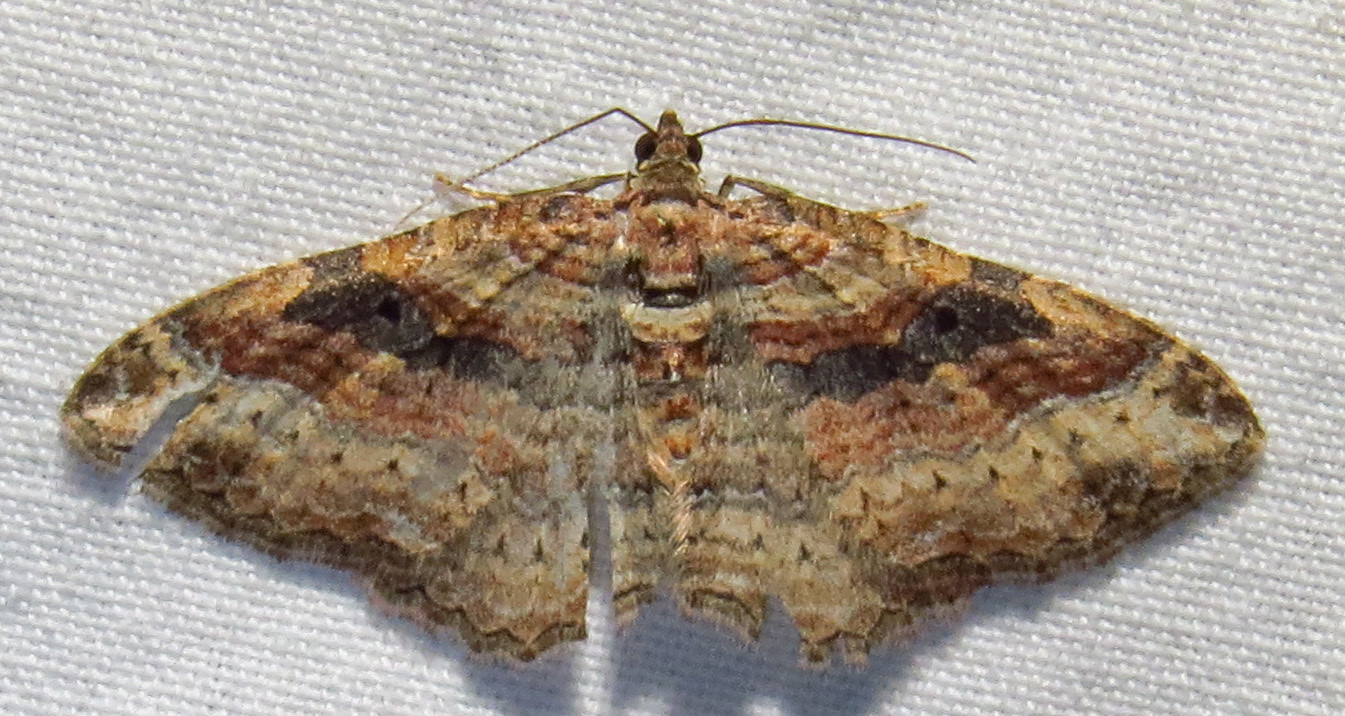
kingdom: Animalia
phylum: Arthropoda
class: Insecta
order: Lepidoptera
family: Geometridae
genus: Costaconvexa
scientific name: Costaconvexa centrostrigaria
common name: Bent-line carpet
